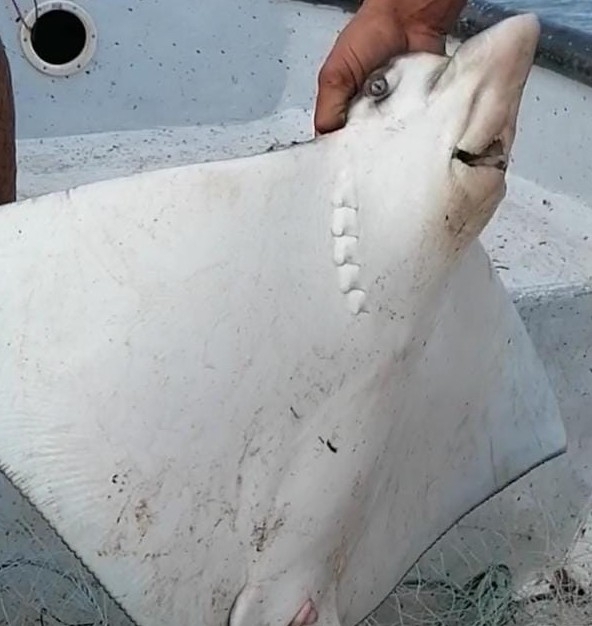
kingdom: Animalia
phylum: Chordata
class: Elasmobranchii
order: Myliobatiformes
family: Myliobatidae
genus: Aetobatus
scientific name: Aetobatus narinari
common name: Spotted eagle ray
